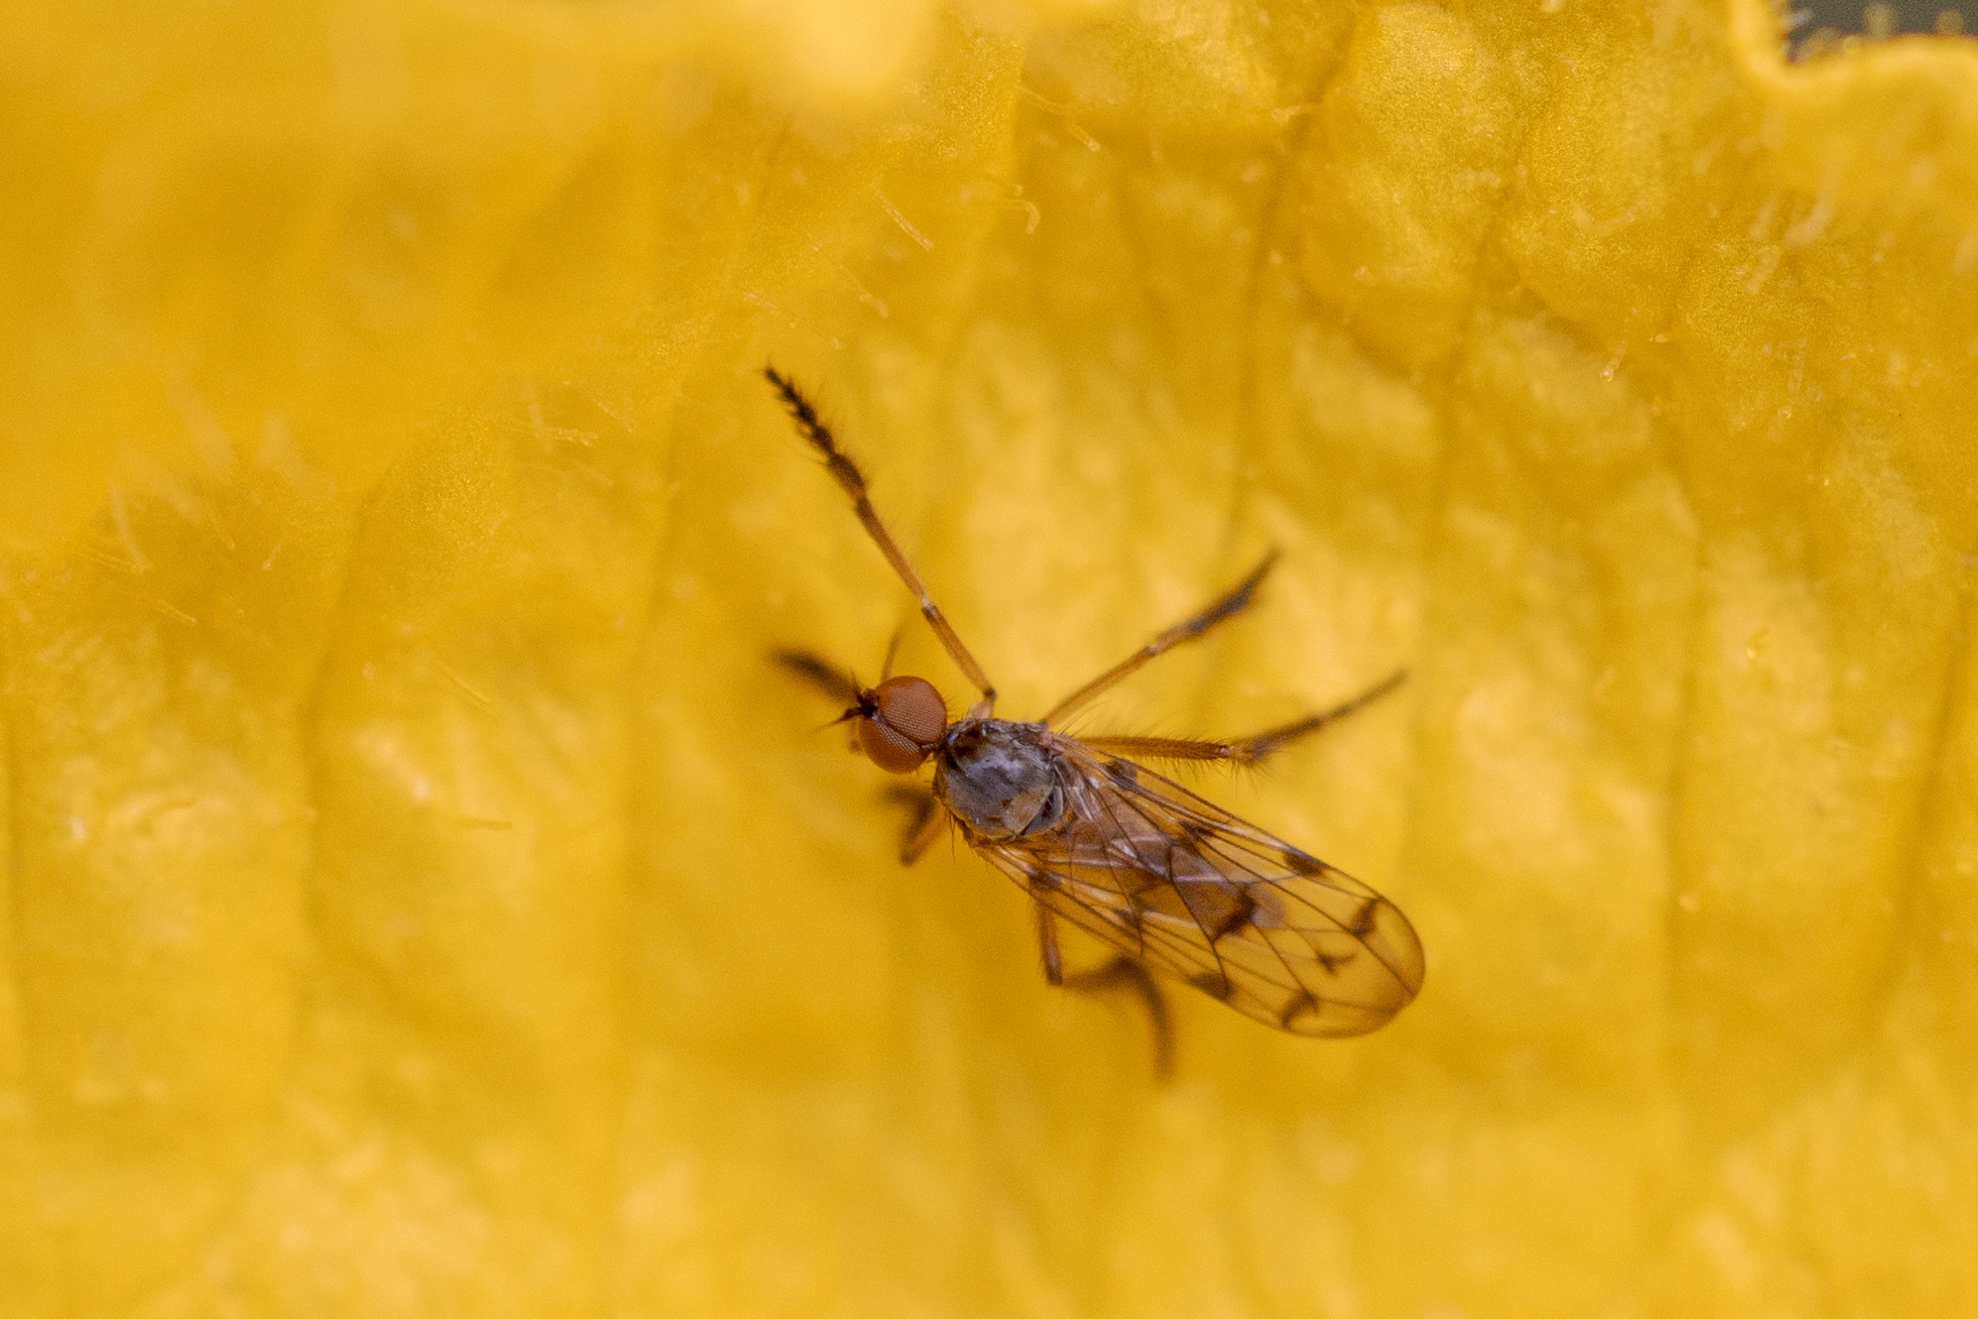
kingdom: Animalia
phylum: Arthropoda
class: Insecta
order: Diptera
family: Empididae
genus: Empis
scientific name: Empis clausa
